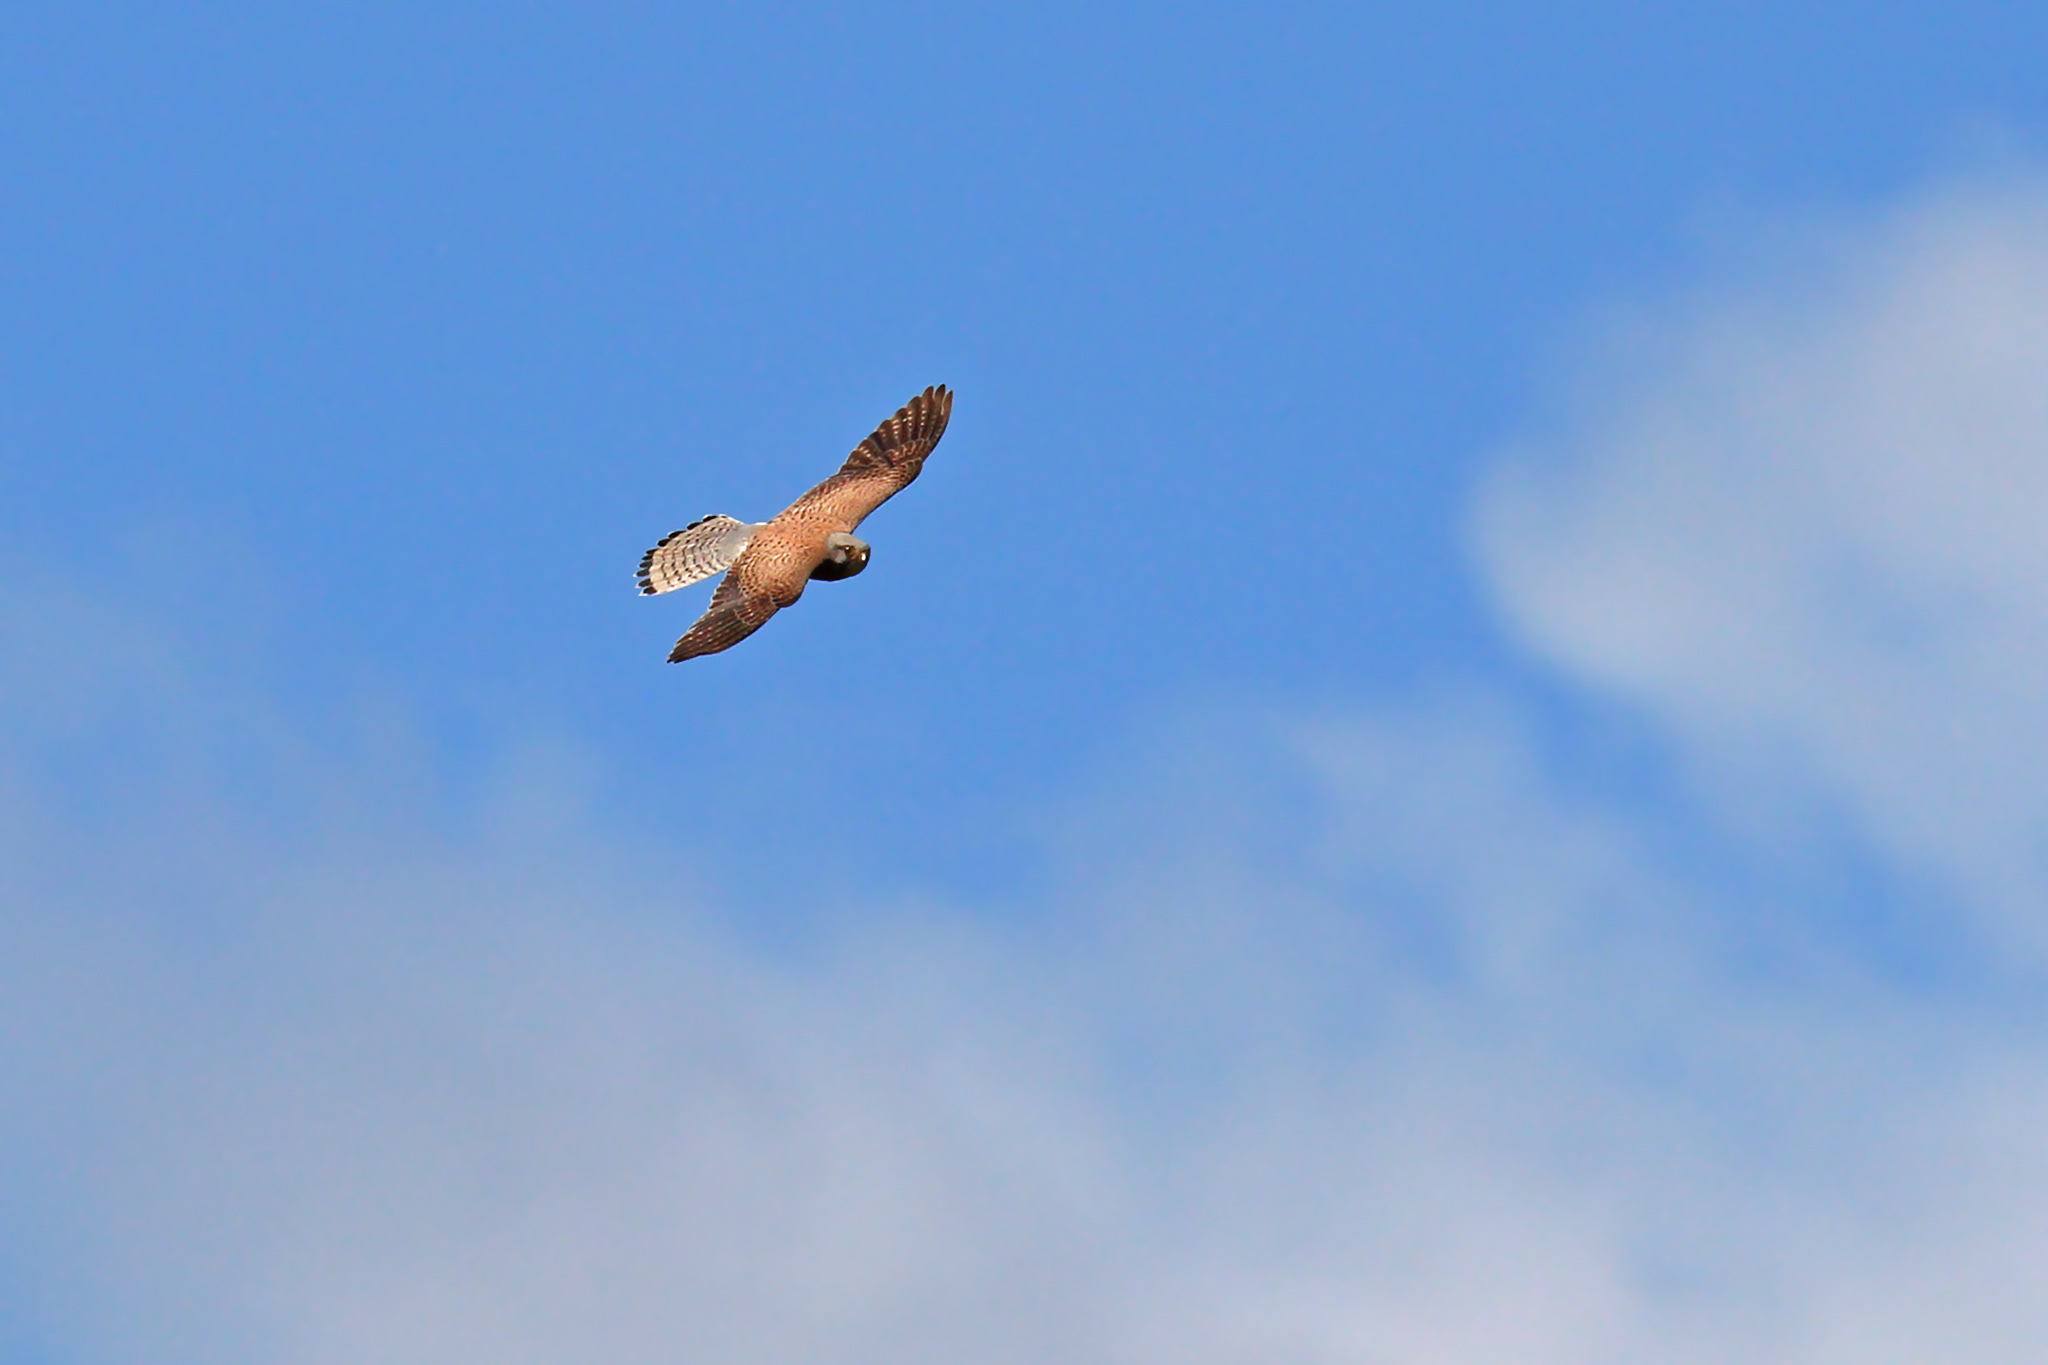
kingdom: Animalia
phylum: Chordata
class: Aves
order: Falconiformes
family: Falconidae
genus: Falco
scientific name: Falco tinnunculus
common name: Common kestrel
